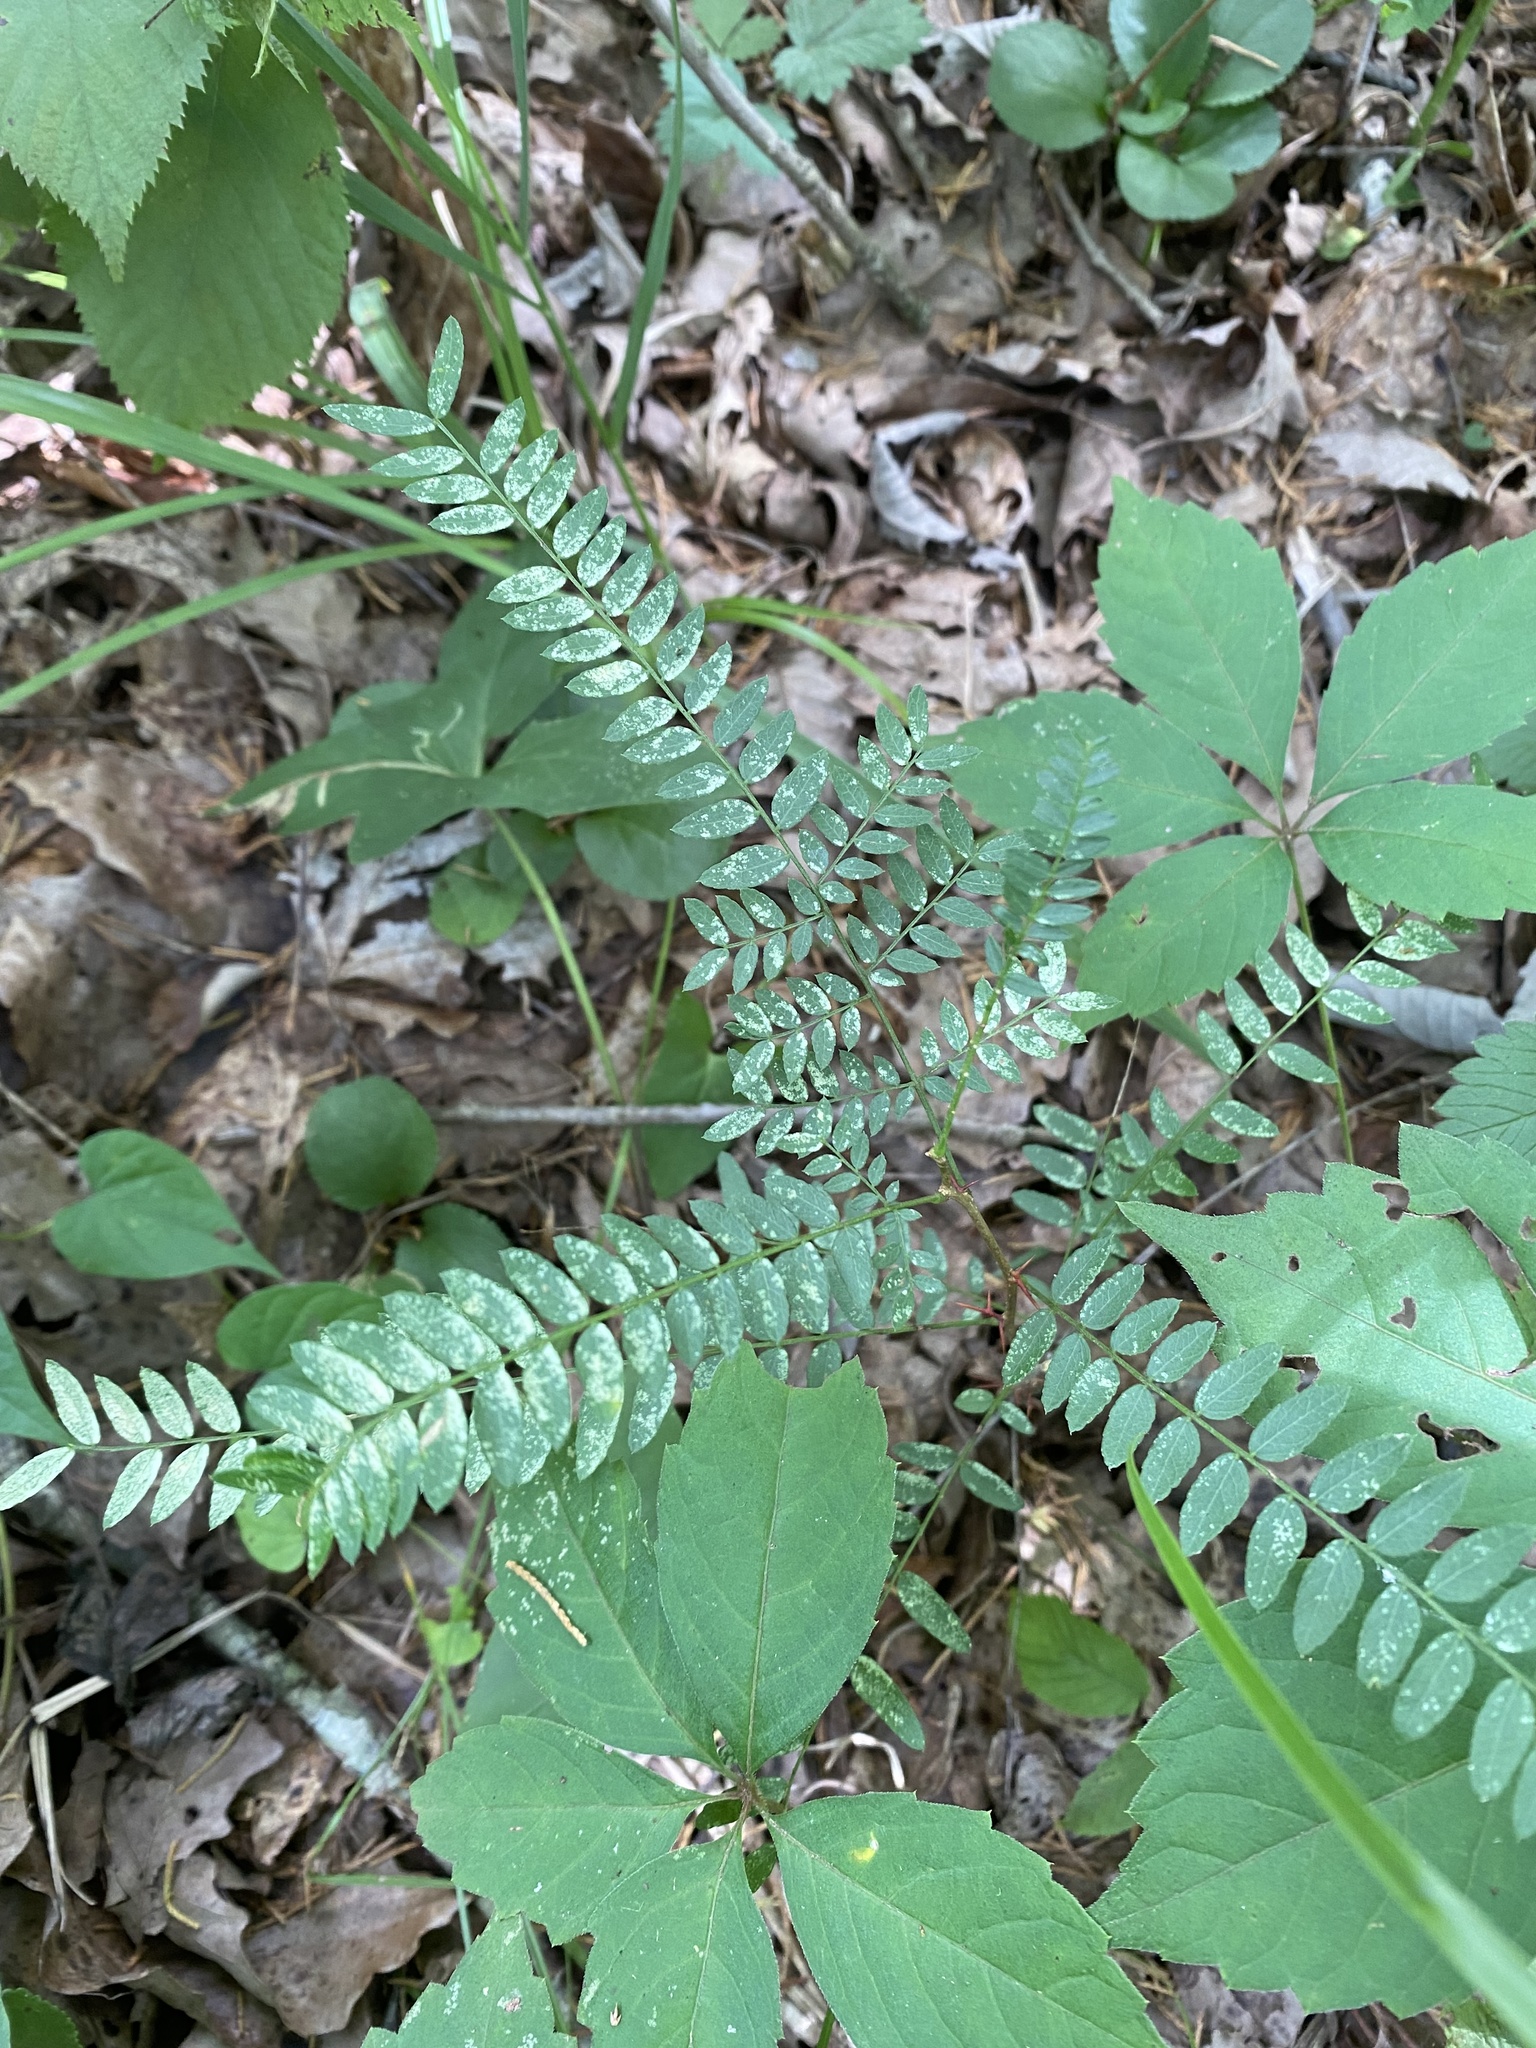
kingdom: Plantae
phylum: Tracheophyta
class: Magnoliopsida
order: Fabales
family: Fabaceae
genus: Gleditsia
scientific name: Gleditsia triacanthos
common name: Common honeylocust
